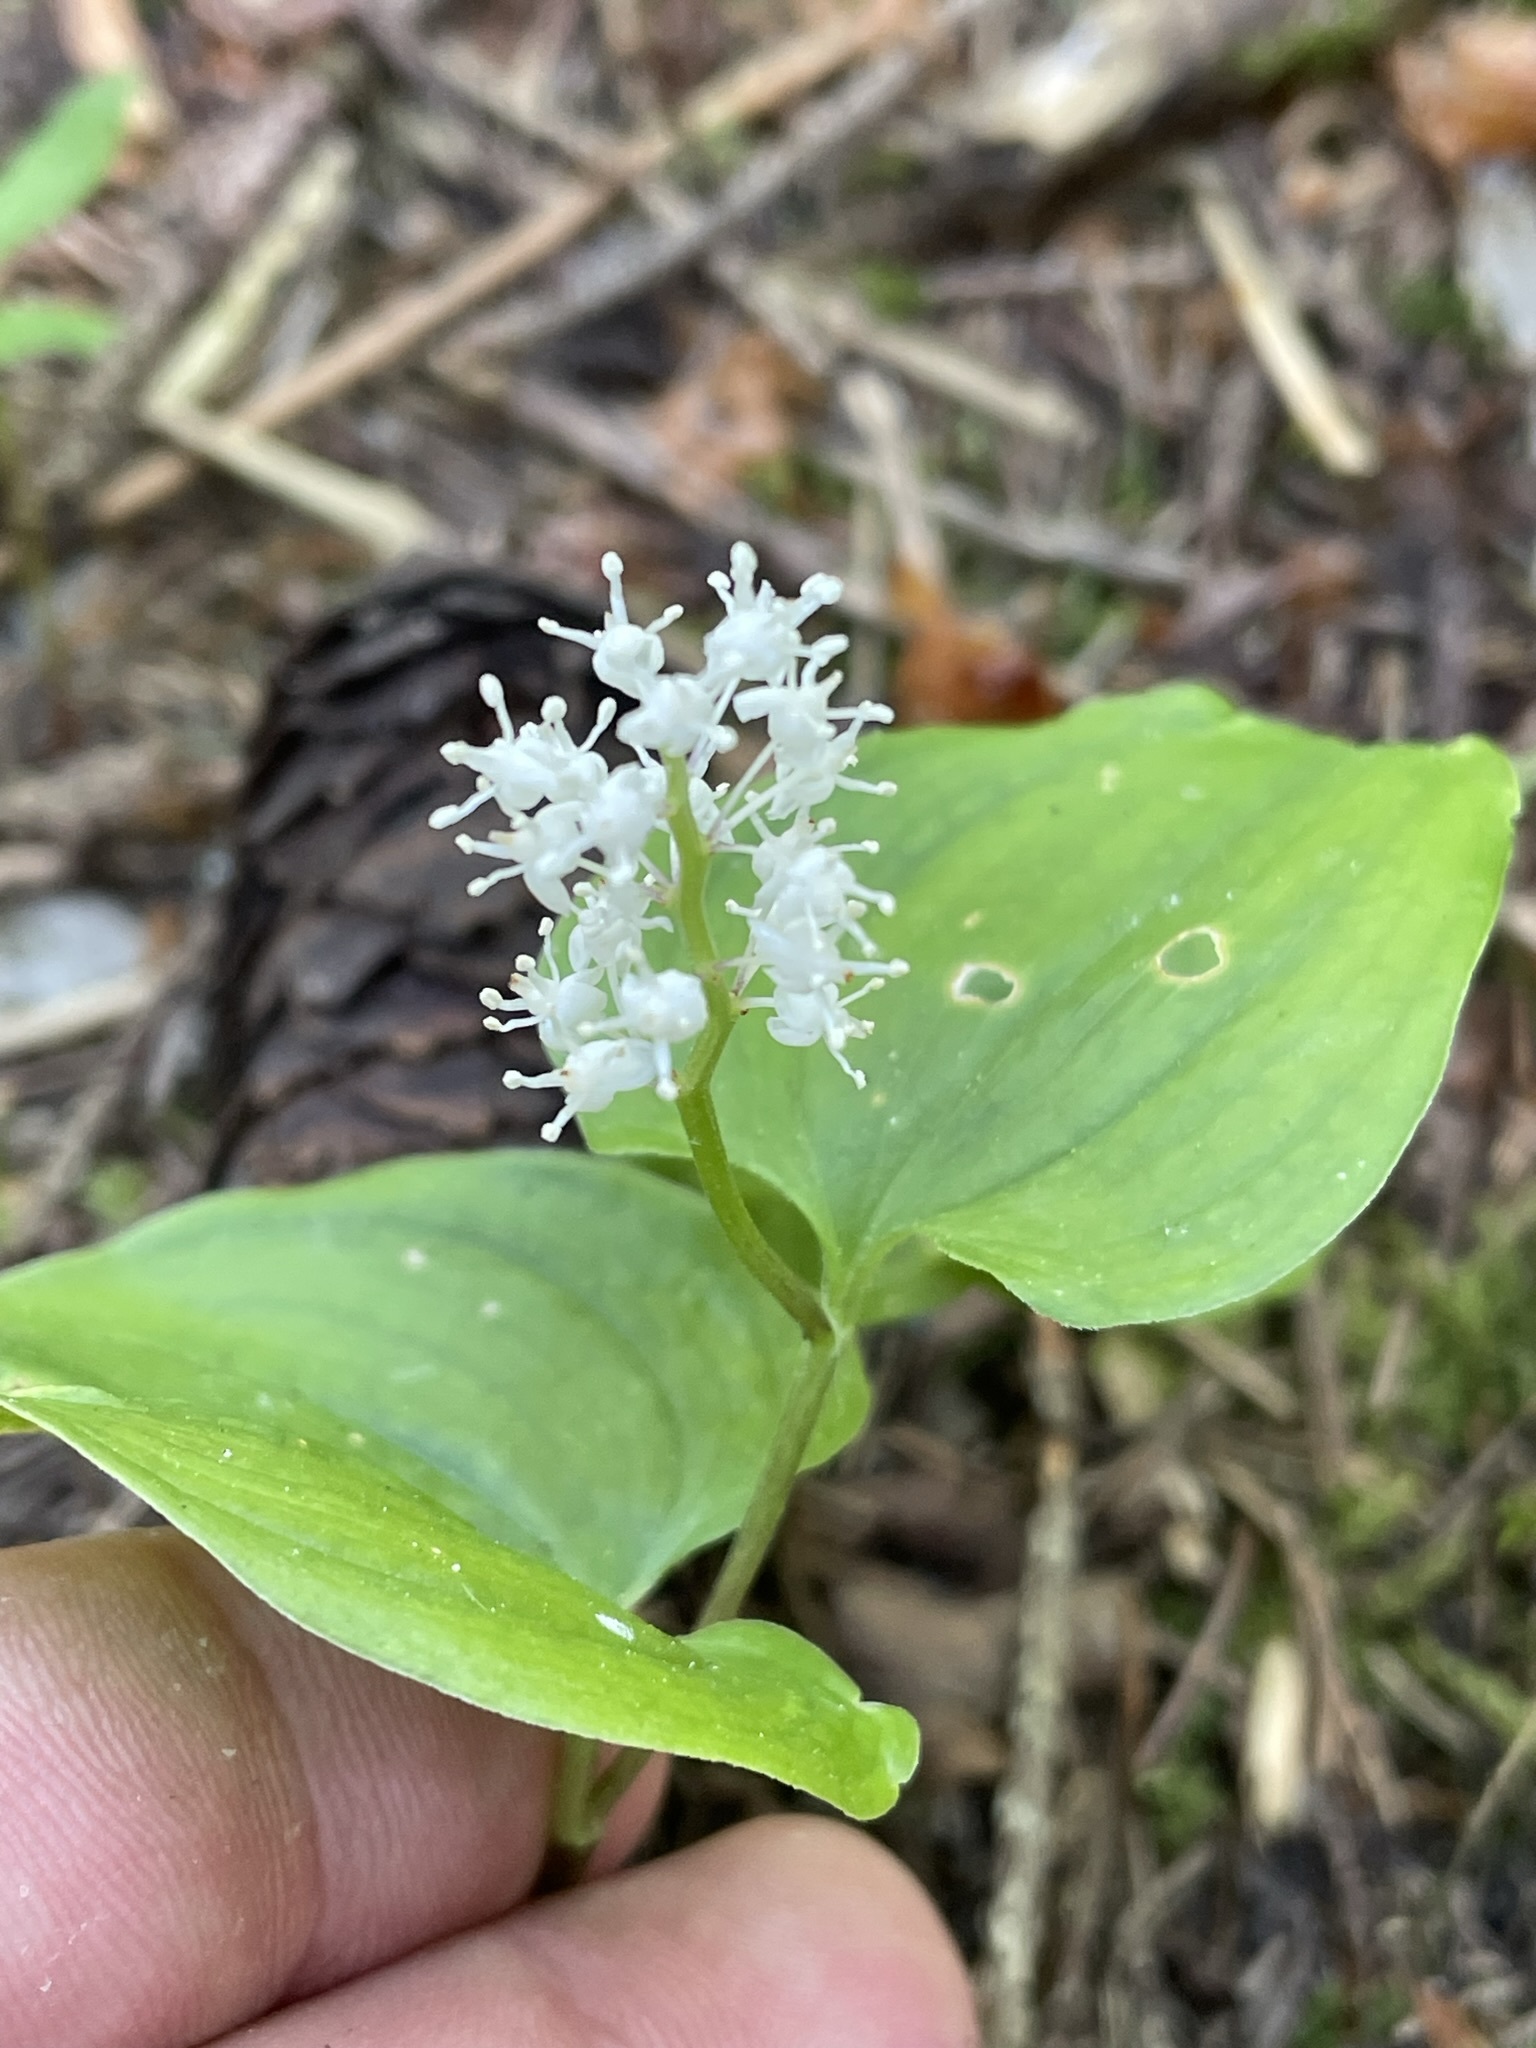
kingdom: Plantae
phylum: Tracheophyta
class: Liliopsida
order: Asparagales
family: Asparagaceae
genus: Maianthemum
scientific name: Maianthemum bifolium
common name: May lily
